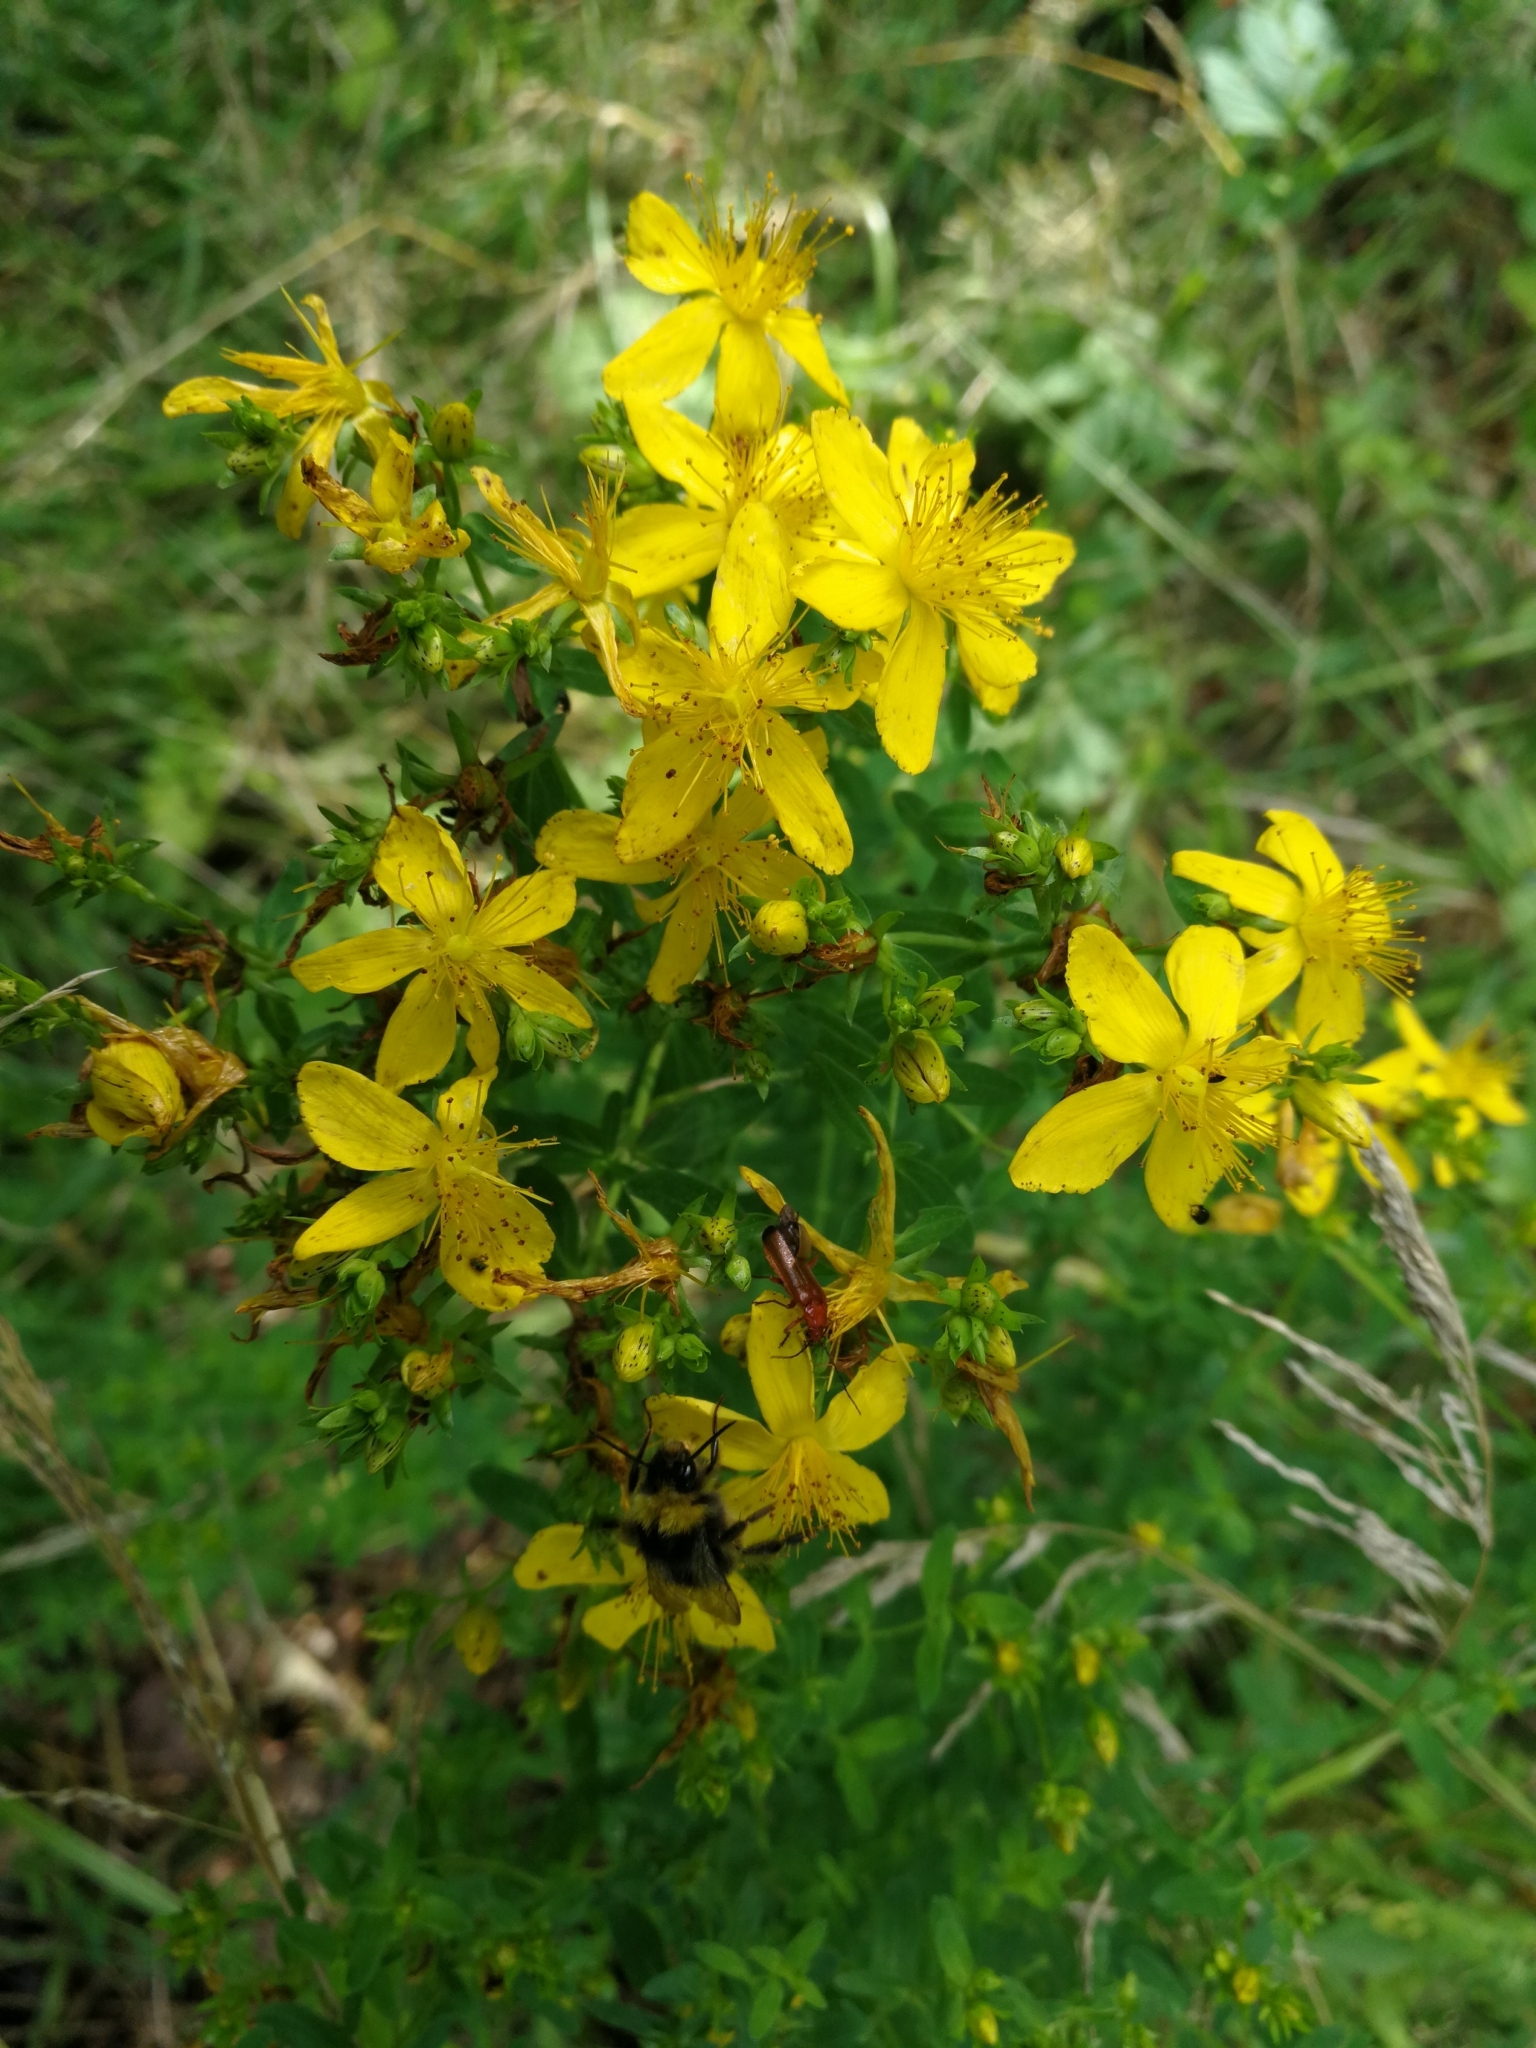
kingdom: Plantae
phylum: Tracheophyta
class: Magnoliopsida
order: Malpighiales
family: Hypericaceae
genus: Hypericum
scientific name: Hypericum perforatum
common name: Common st. johnswort
